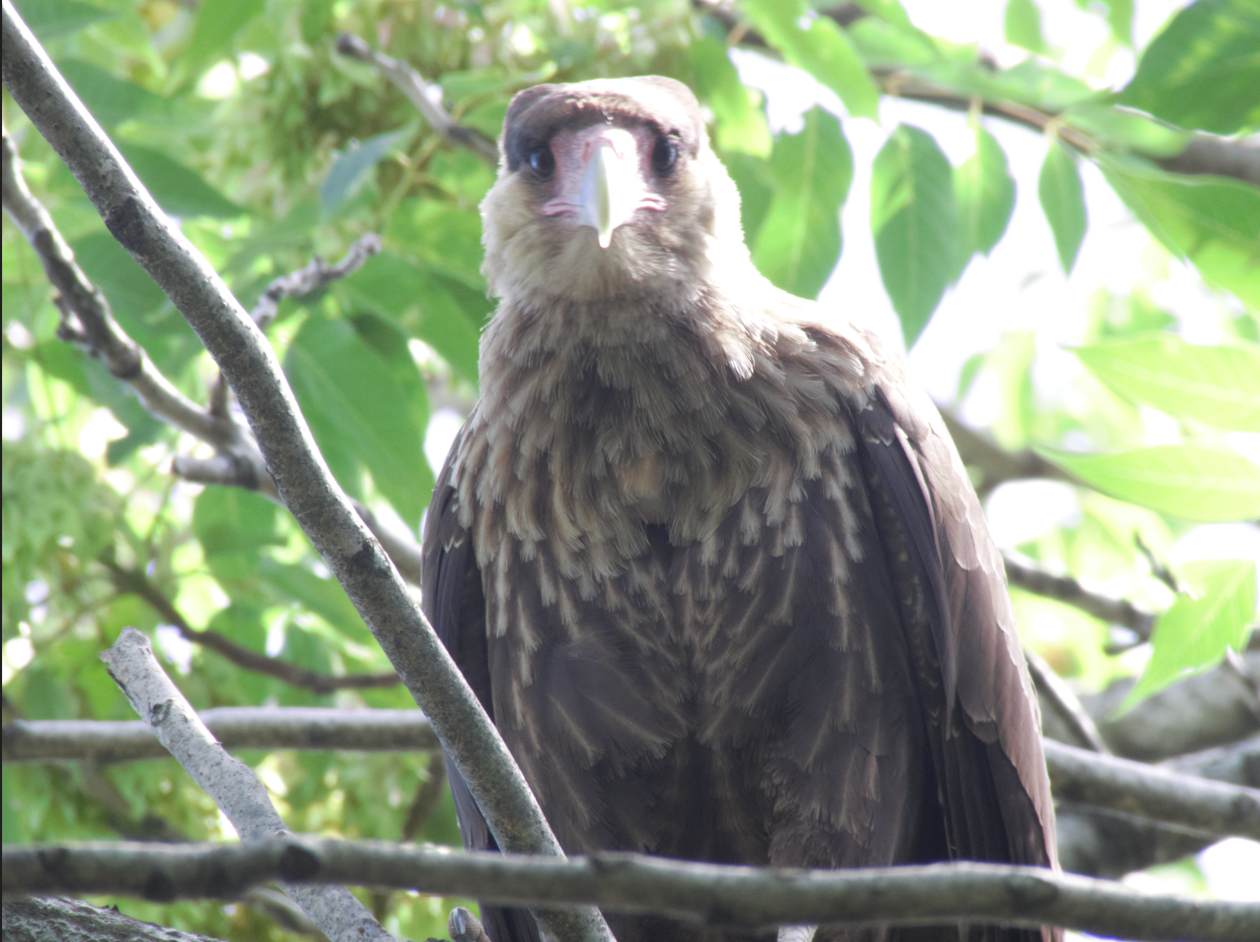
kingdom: Animalia
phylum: Chordata
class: Aves
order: Falconiformes
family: Falconidae
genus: Caracara
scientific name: Caracara plancus
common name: Southern caracara
